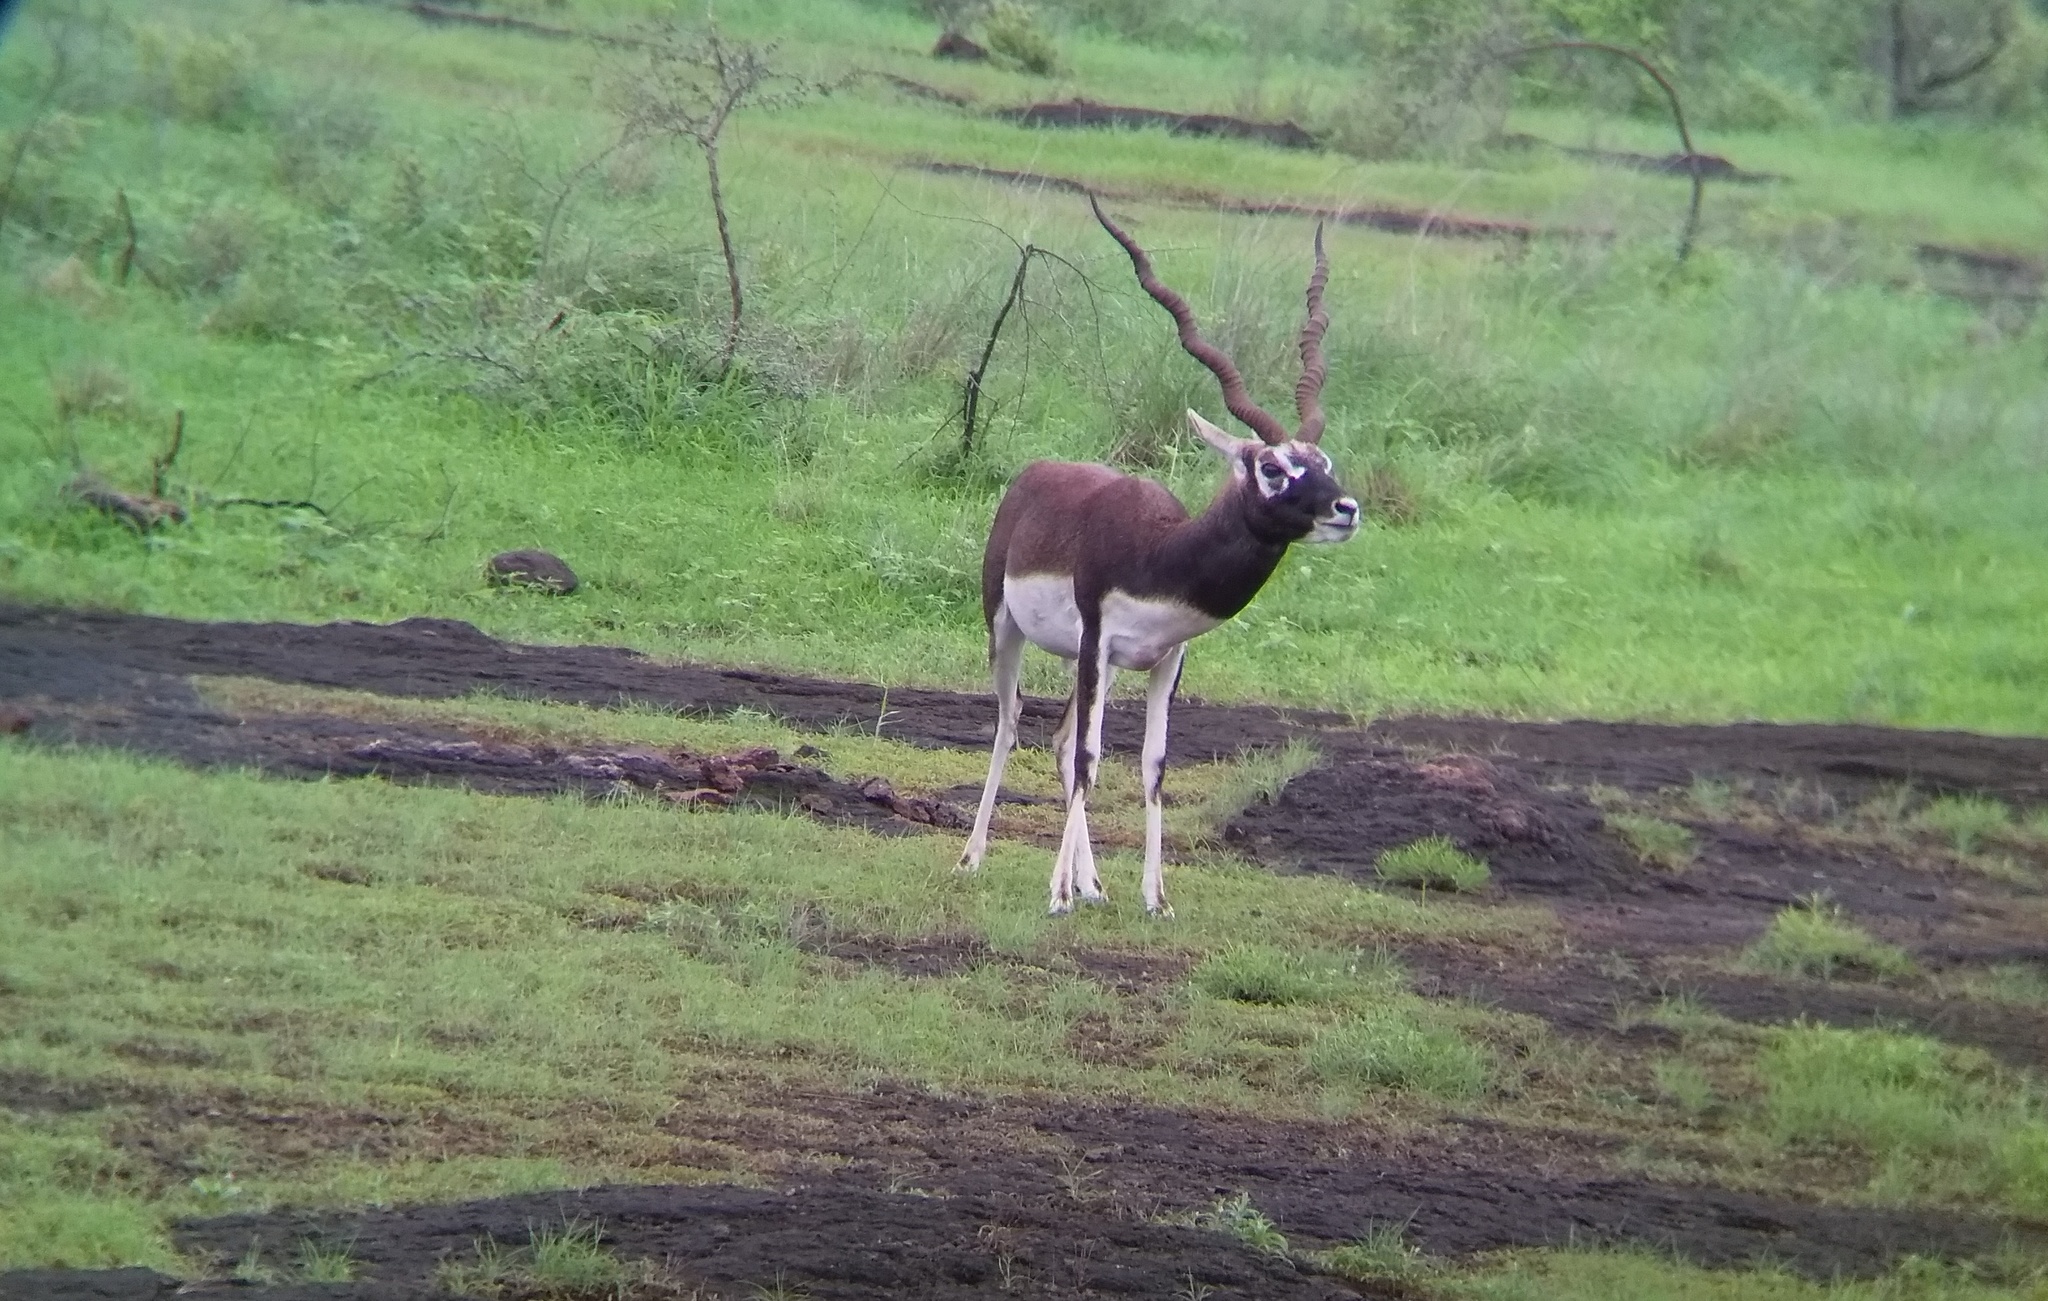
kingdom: Animalia
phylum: Chordata
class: Mammalia
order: Artiodactyla
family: Bovidae
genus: Antilope
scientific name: Antilope cervicapra
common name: Blackbuck
